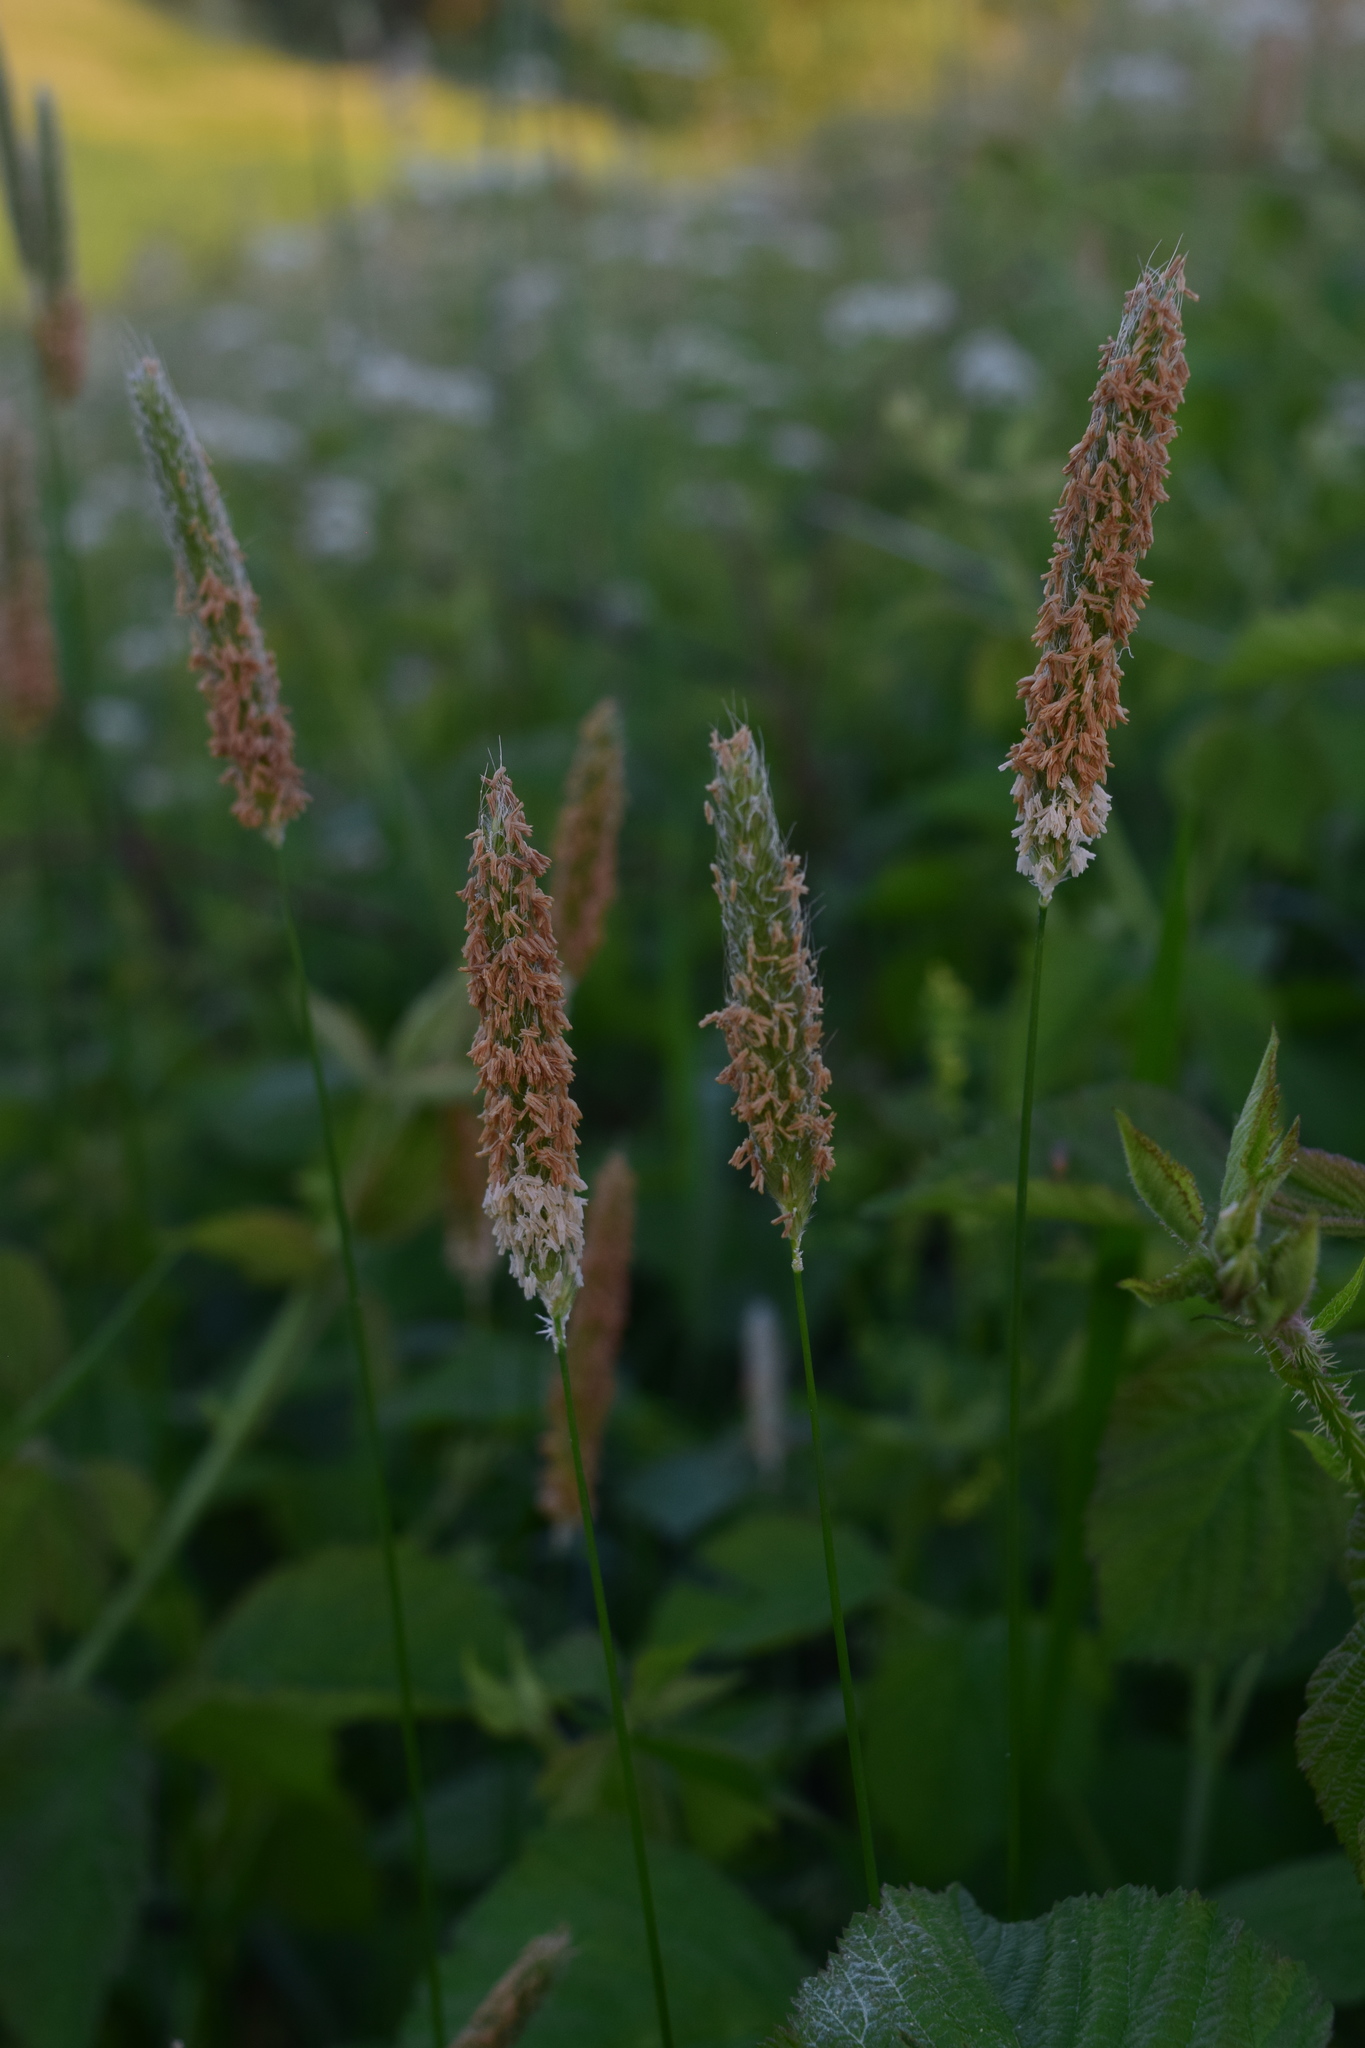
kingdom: Plantae
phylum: Tracheophyta
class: Liliopsida
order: Poales
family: Poaceae
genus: Alopecurus
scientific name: Alopecurus pratensis
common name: Meadow foxtail
